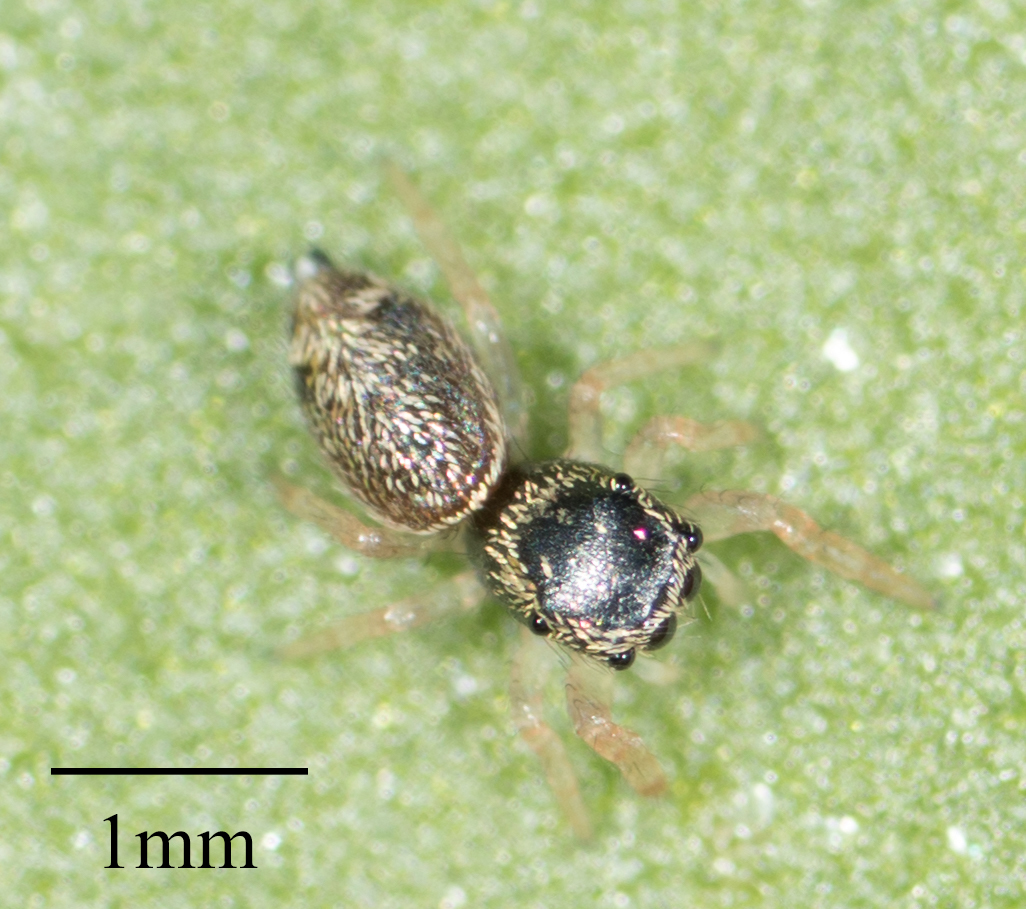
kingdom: Animalia
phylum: Arthropoda
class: Arachnida
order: Araneae
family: Salticidae
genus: Sassacus
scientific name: Sassacus vitis
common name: Jumping spiders
